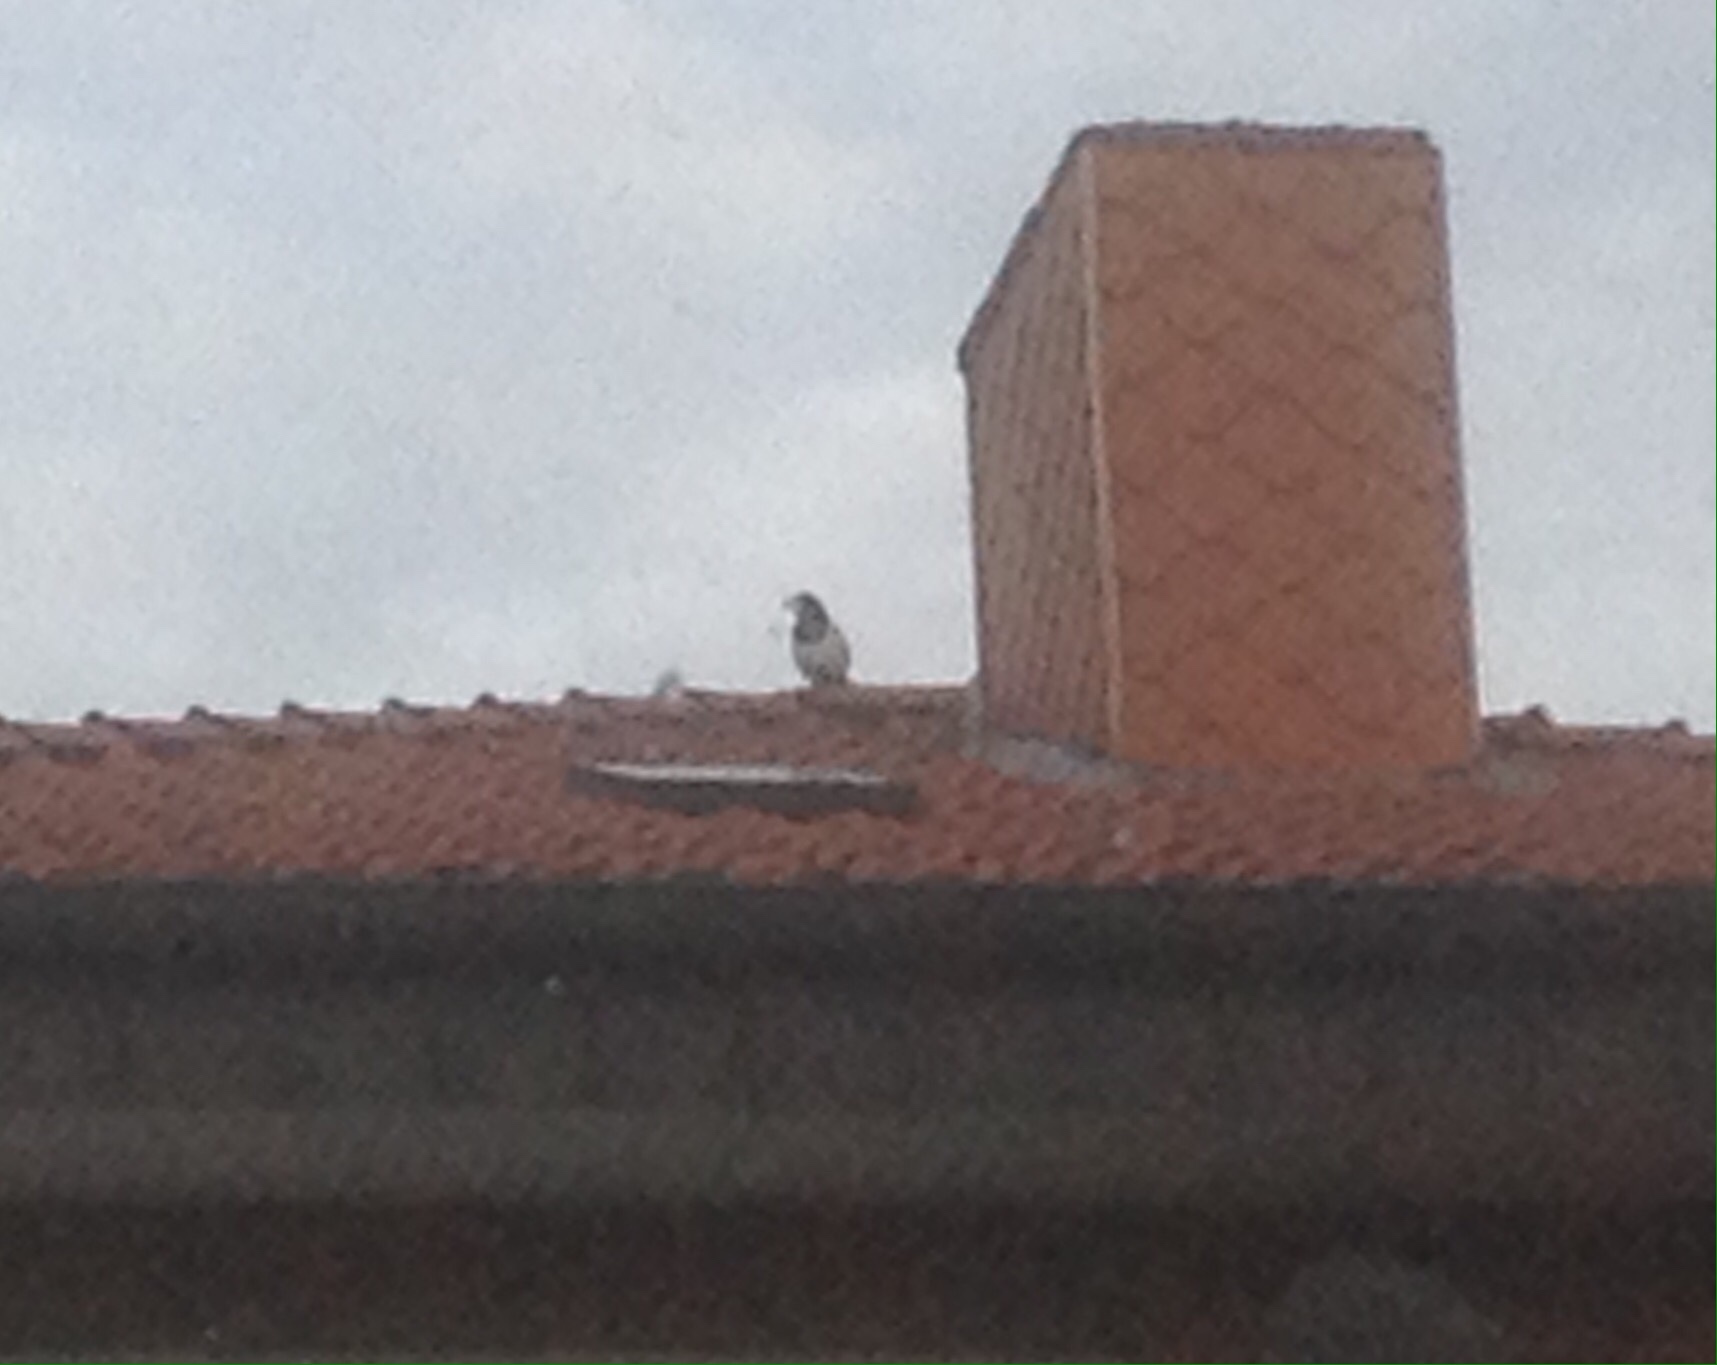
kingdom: Animalia
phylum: Chordata
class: Aves
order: Passeriformes
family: Corvidae
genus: Pica
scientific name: Pica pica
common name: Eurasian magpie
